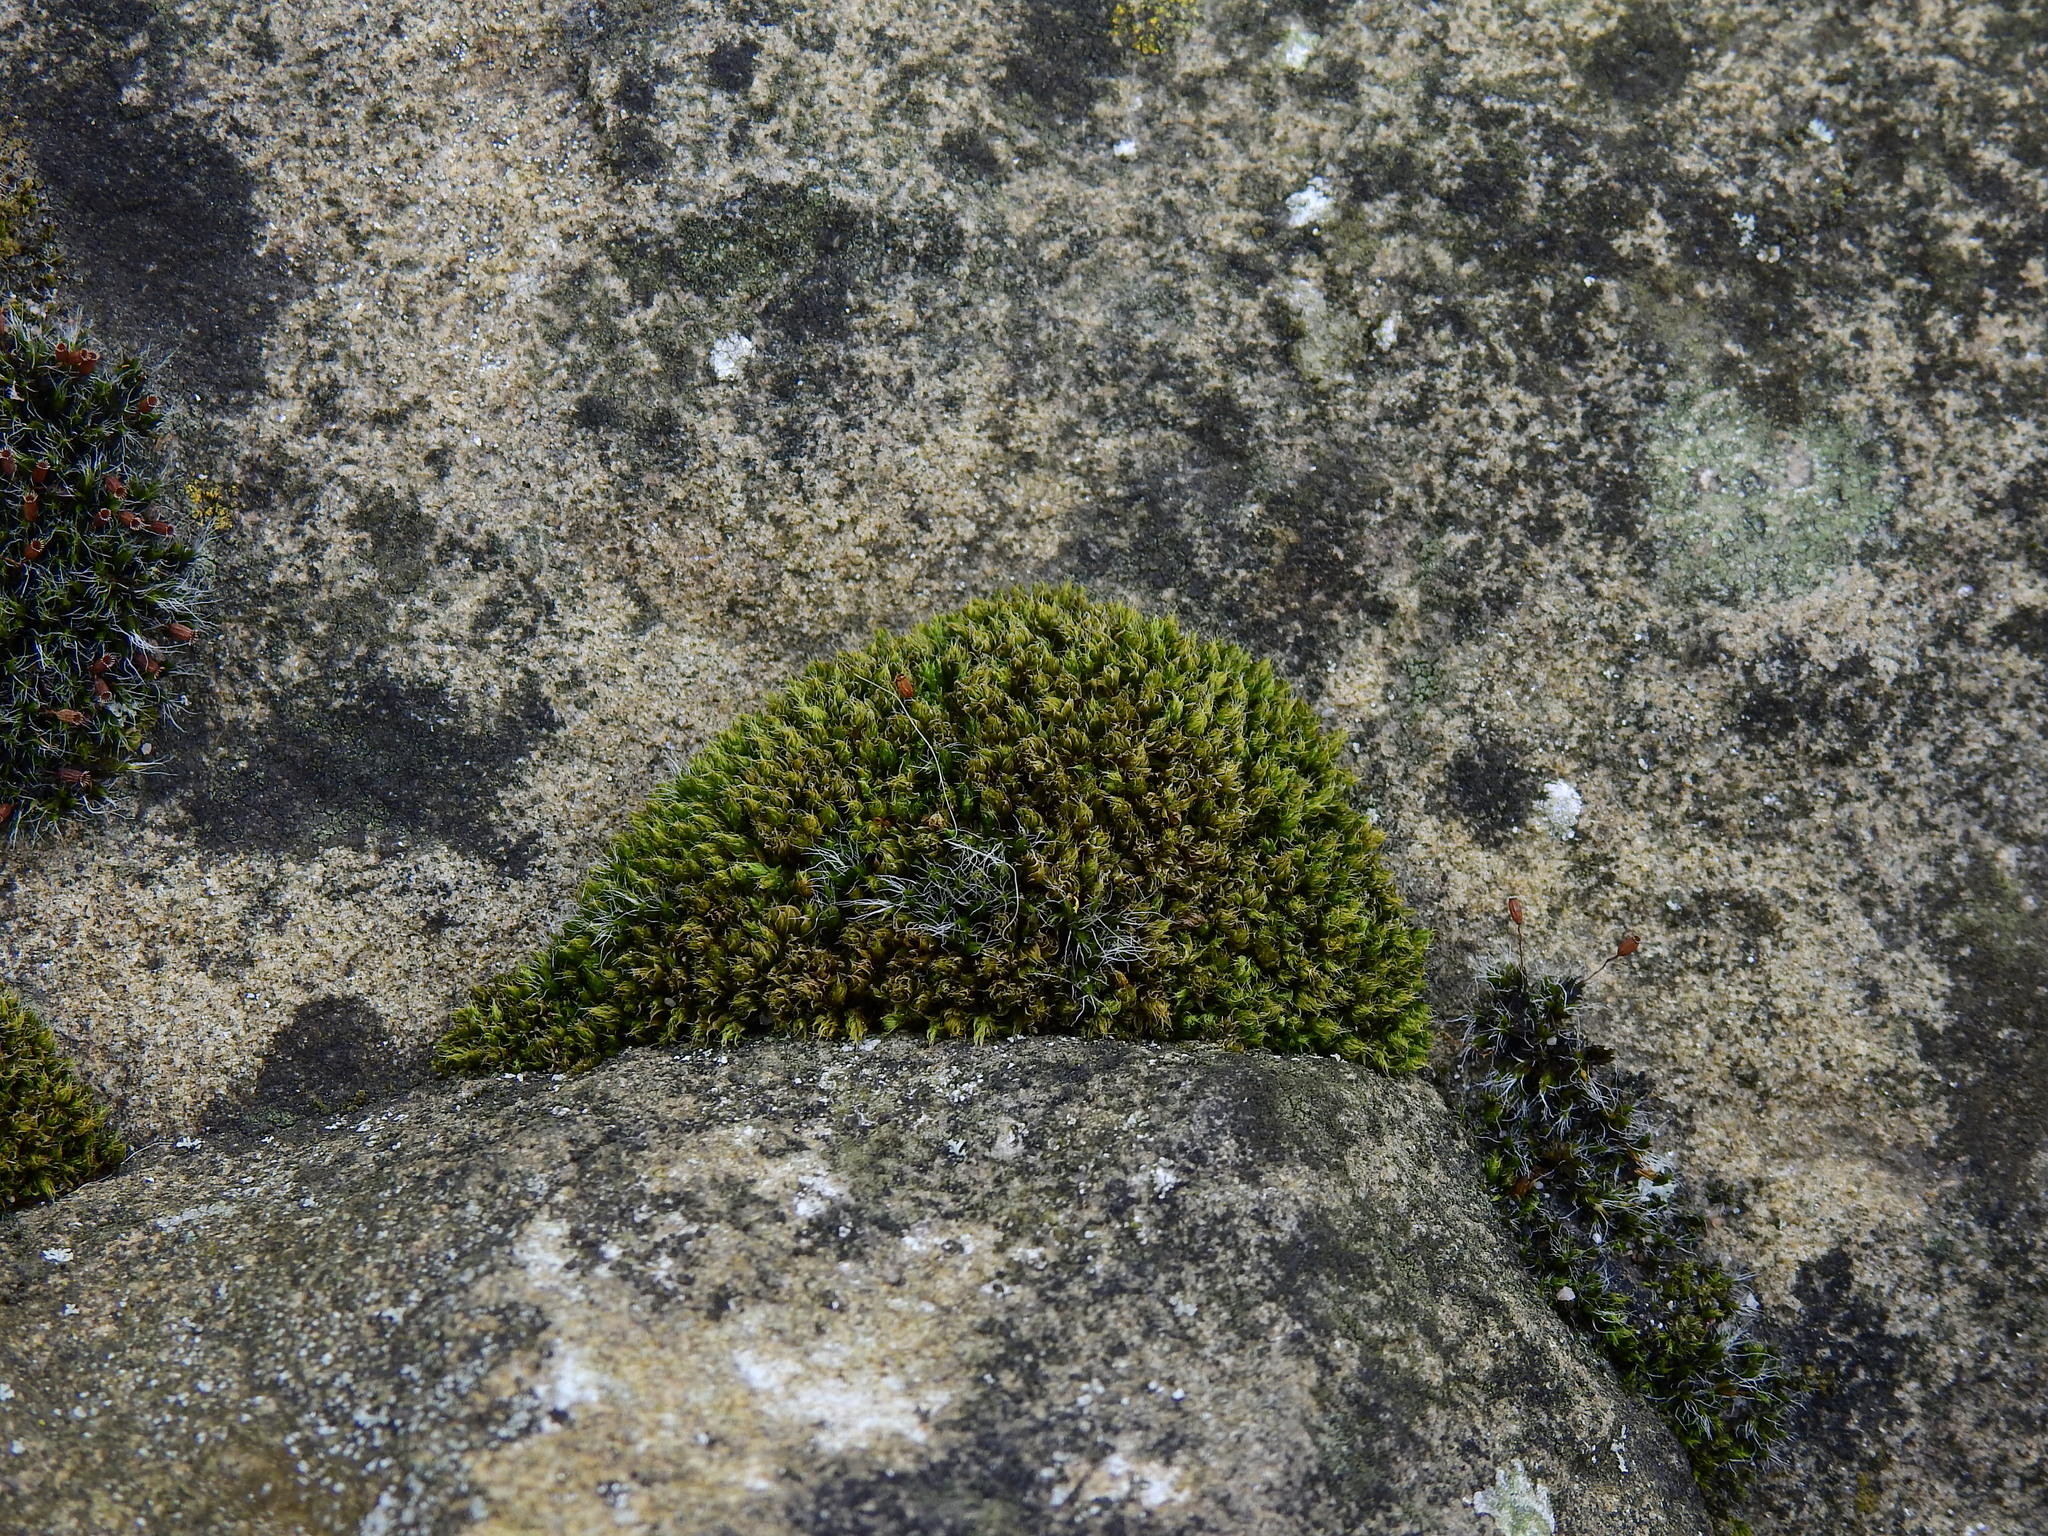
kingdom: Plantae
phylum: Bryophyta
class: Bryopsida
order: Bryales
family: Bryaceae
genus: Rosulabryum
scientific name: Rosulabryum capillare
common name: Capillary thread-moss
